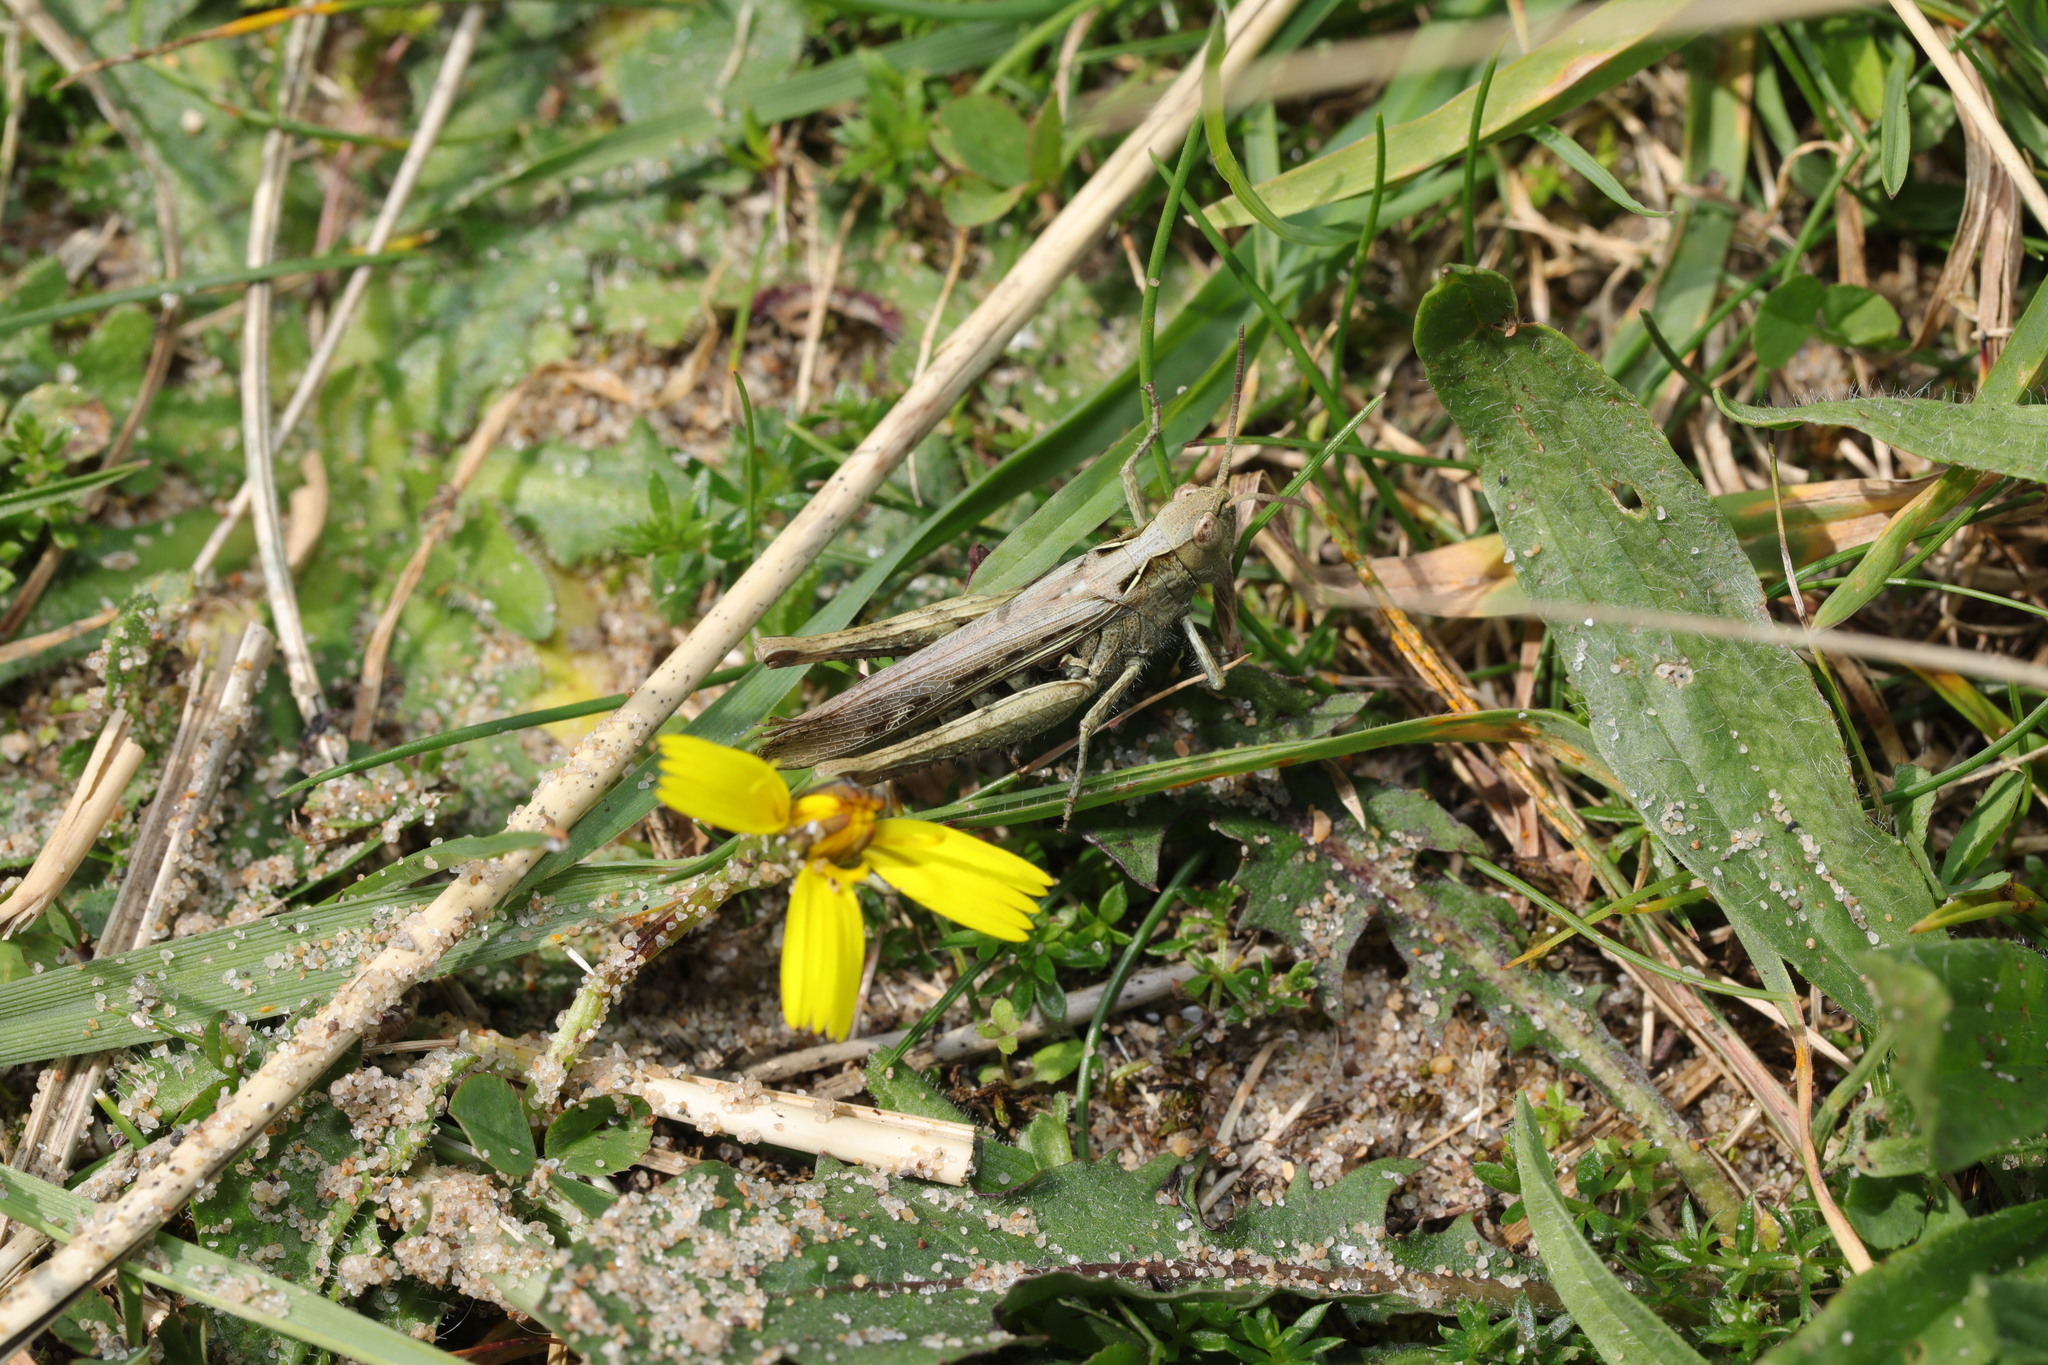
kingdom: Animalia
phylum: Arthropoda
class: Insecta
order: Orthoptera
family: Acrididae
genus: Chorthippus
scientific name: Chorthippus brunneus
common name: Field grasshopper
